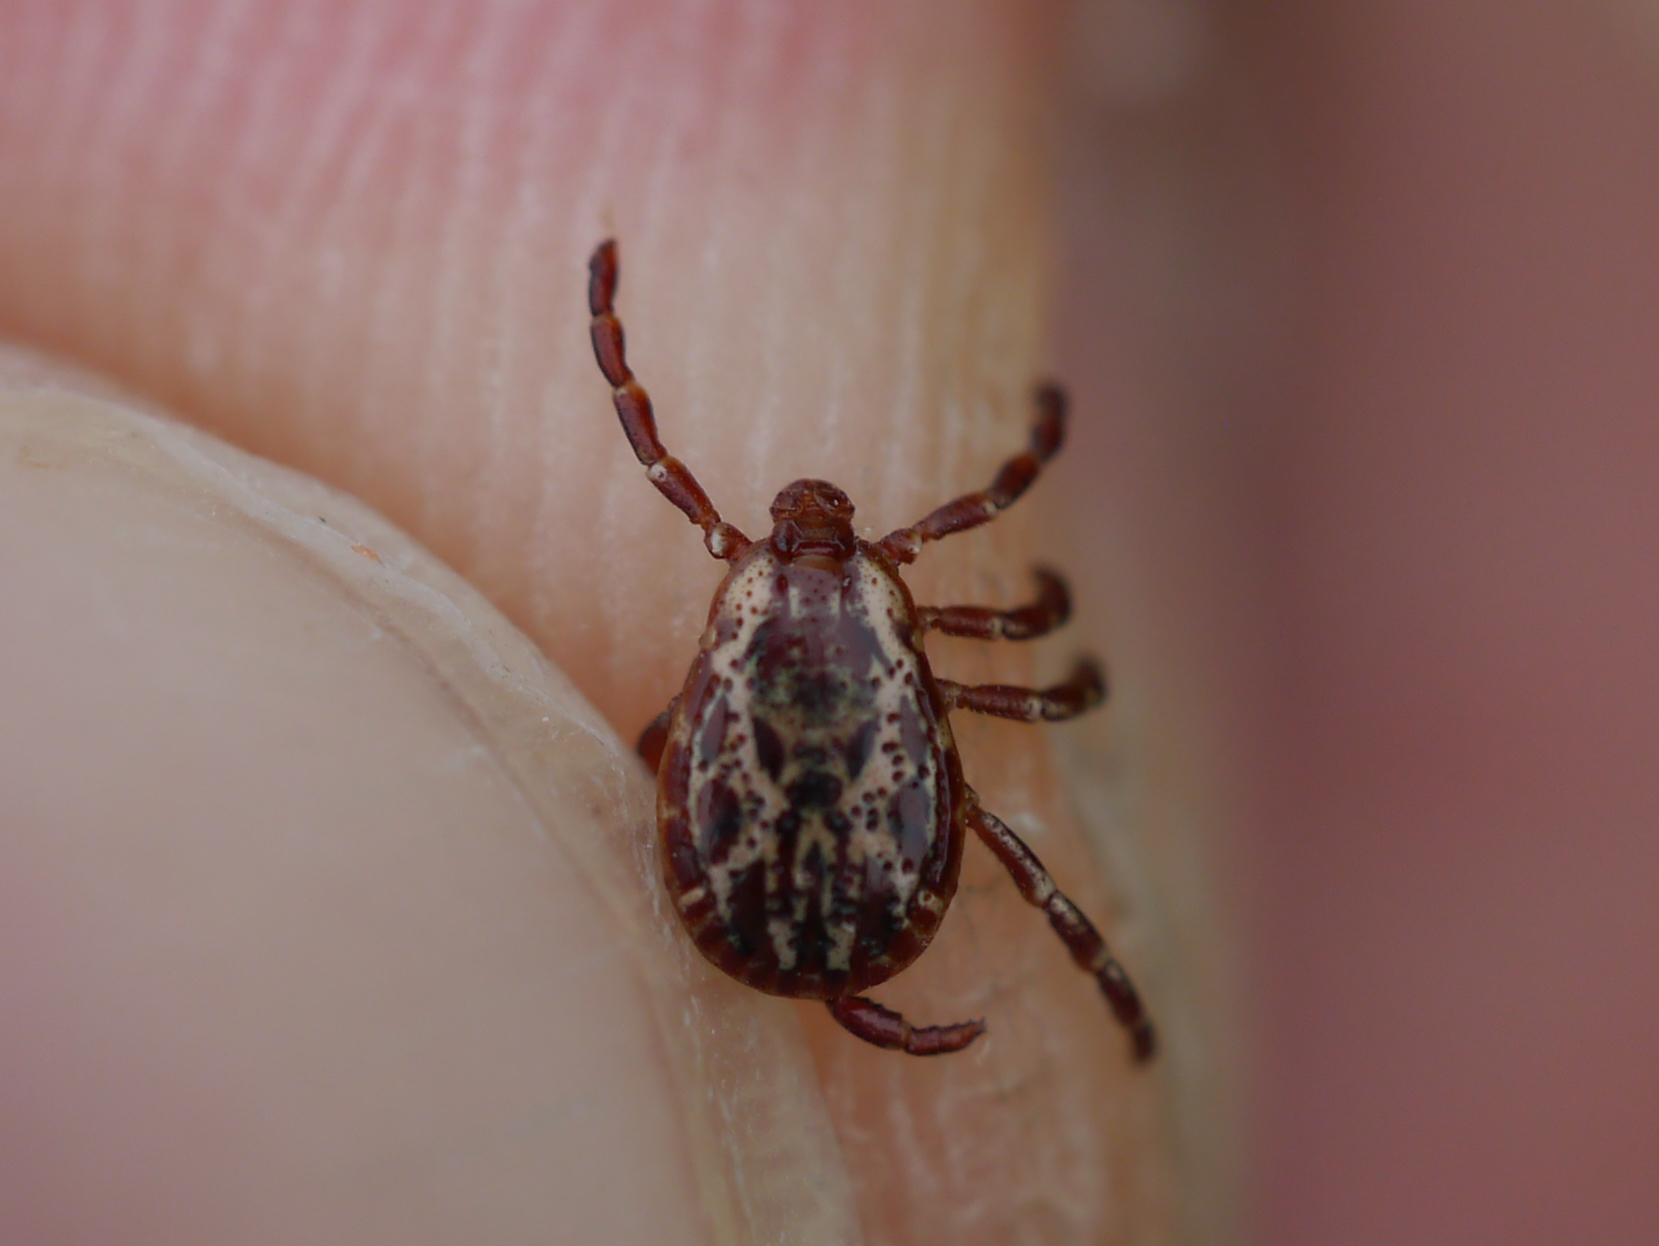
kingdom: Animalia
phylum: Arthropoda
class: Arachnida
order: Ixodida
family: Ixodidae
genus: Dermacentor
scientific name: Dermacentor variabilis
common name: American dog tick
